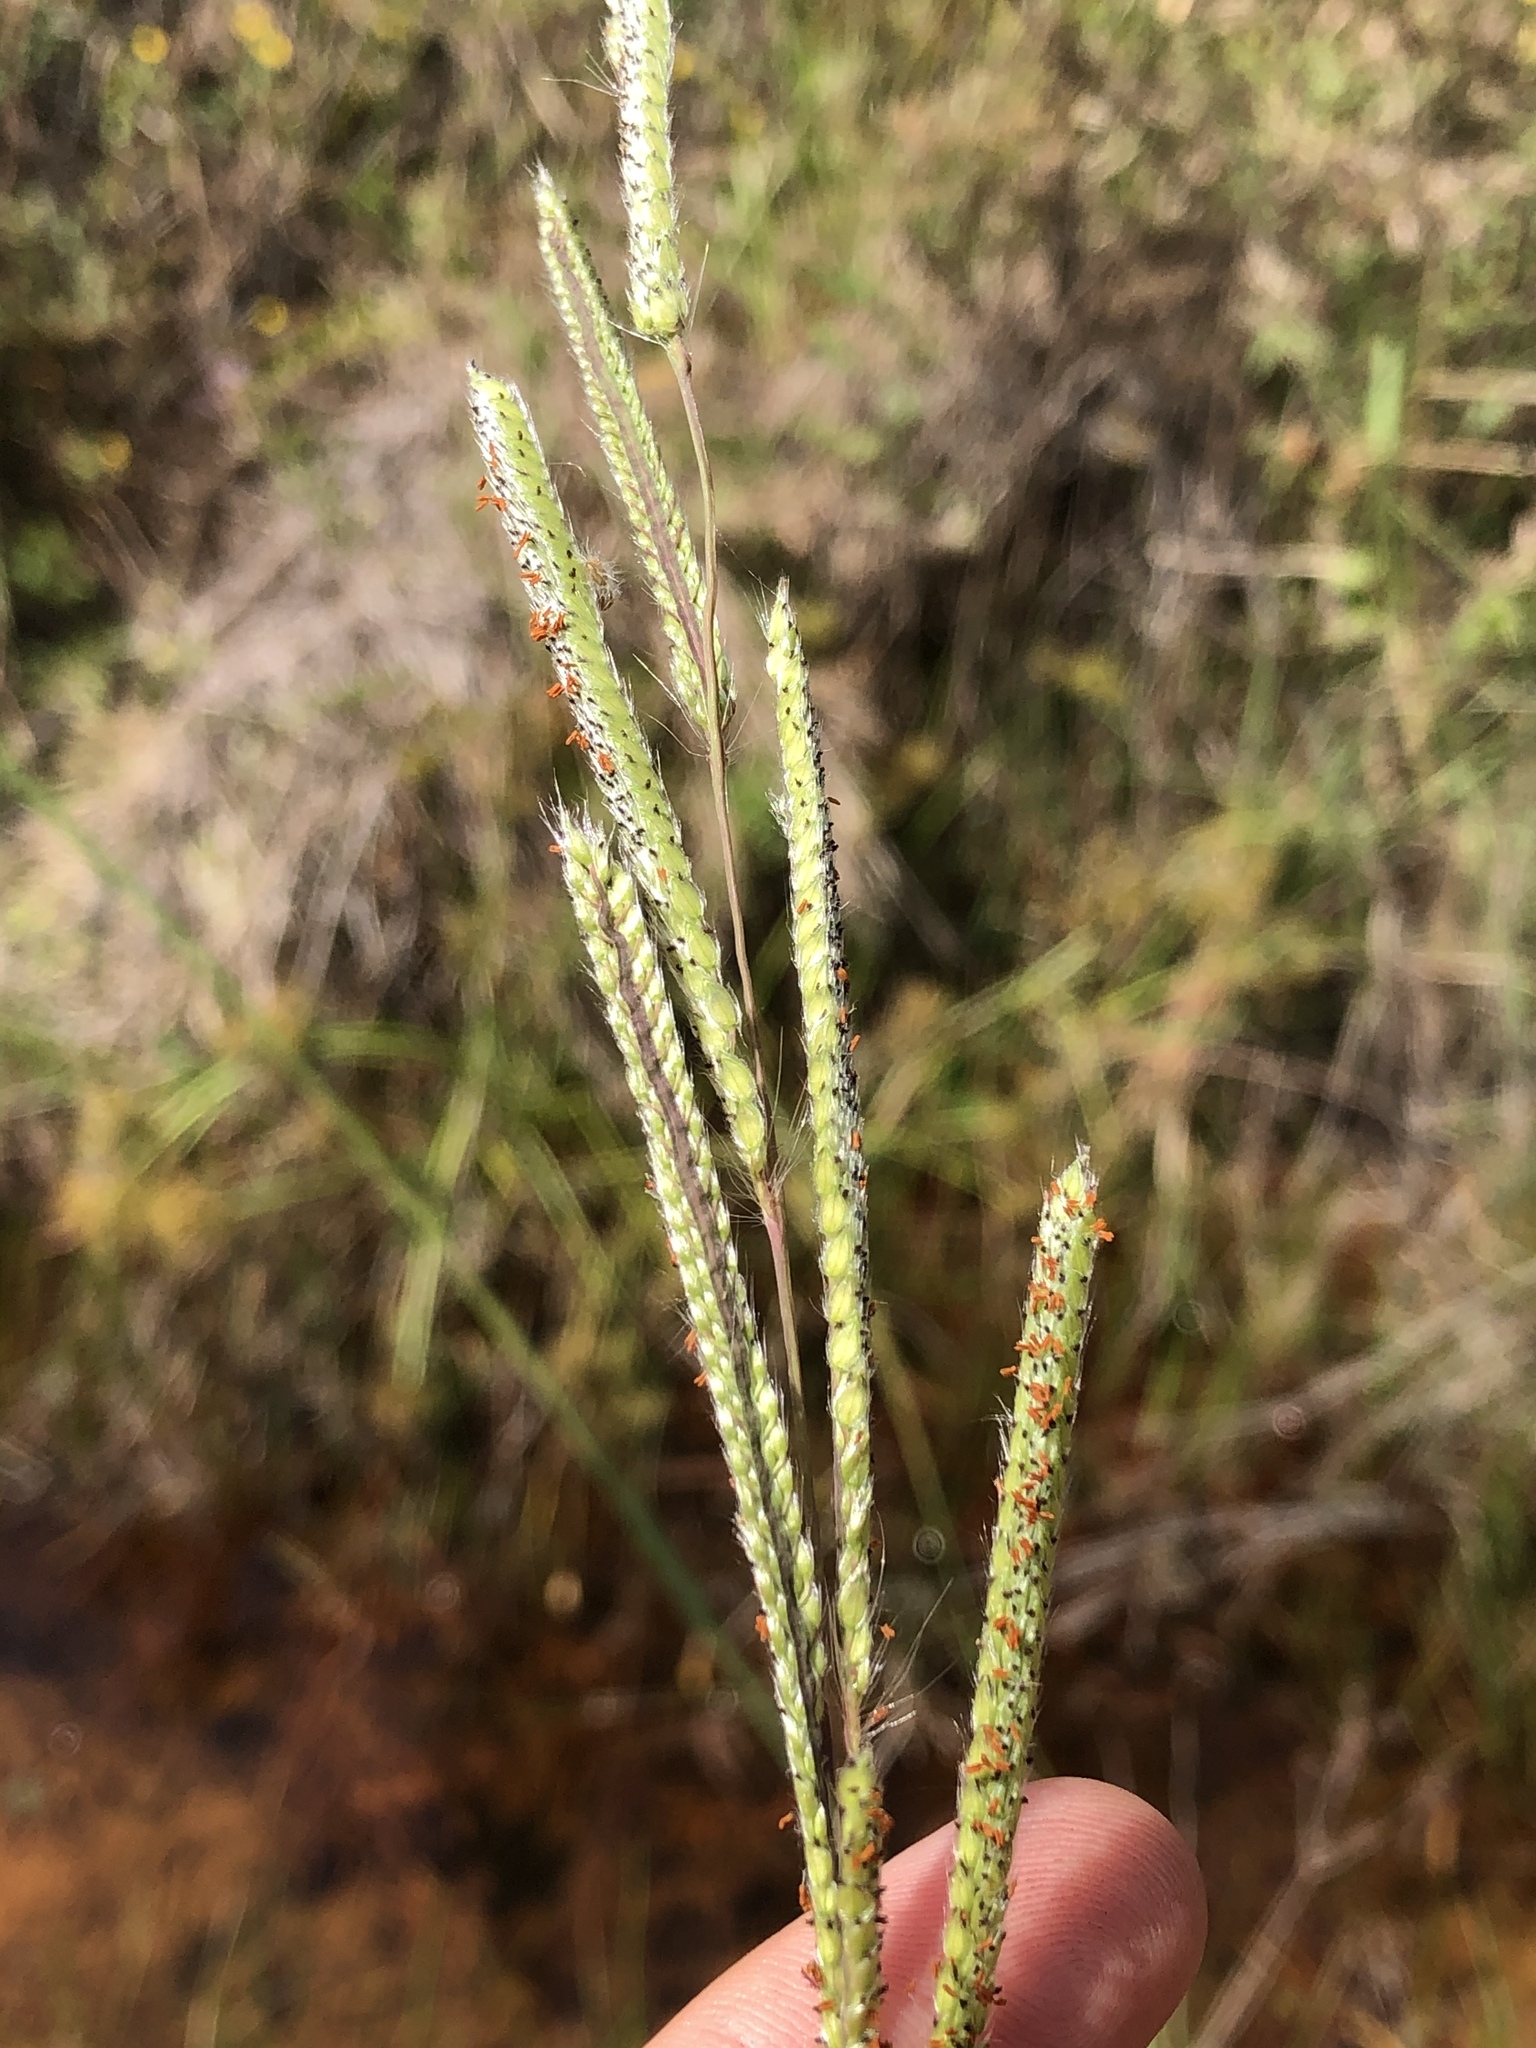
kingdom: Plantae
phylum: Tracheophyta
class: Liliopsida
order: Poales
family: Poaceae
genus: Paspalum
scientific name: Paspalum urvillei
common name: Vasey's grass
